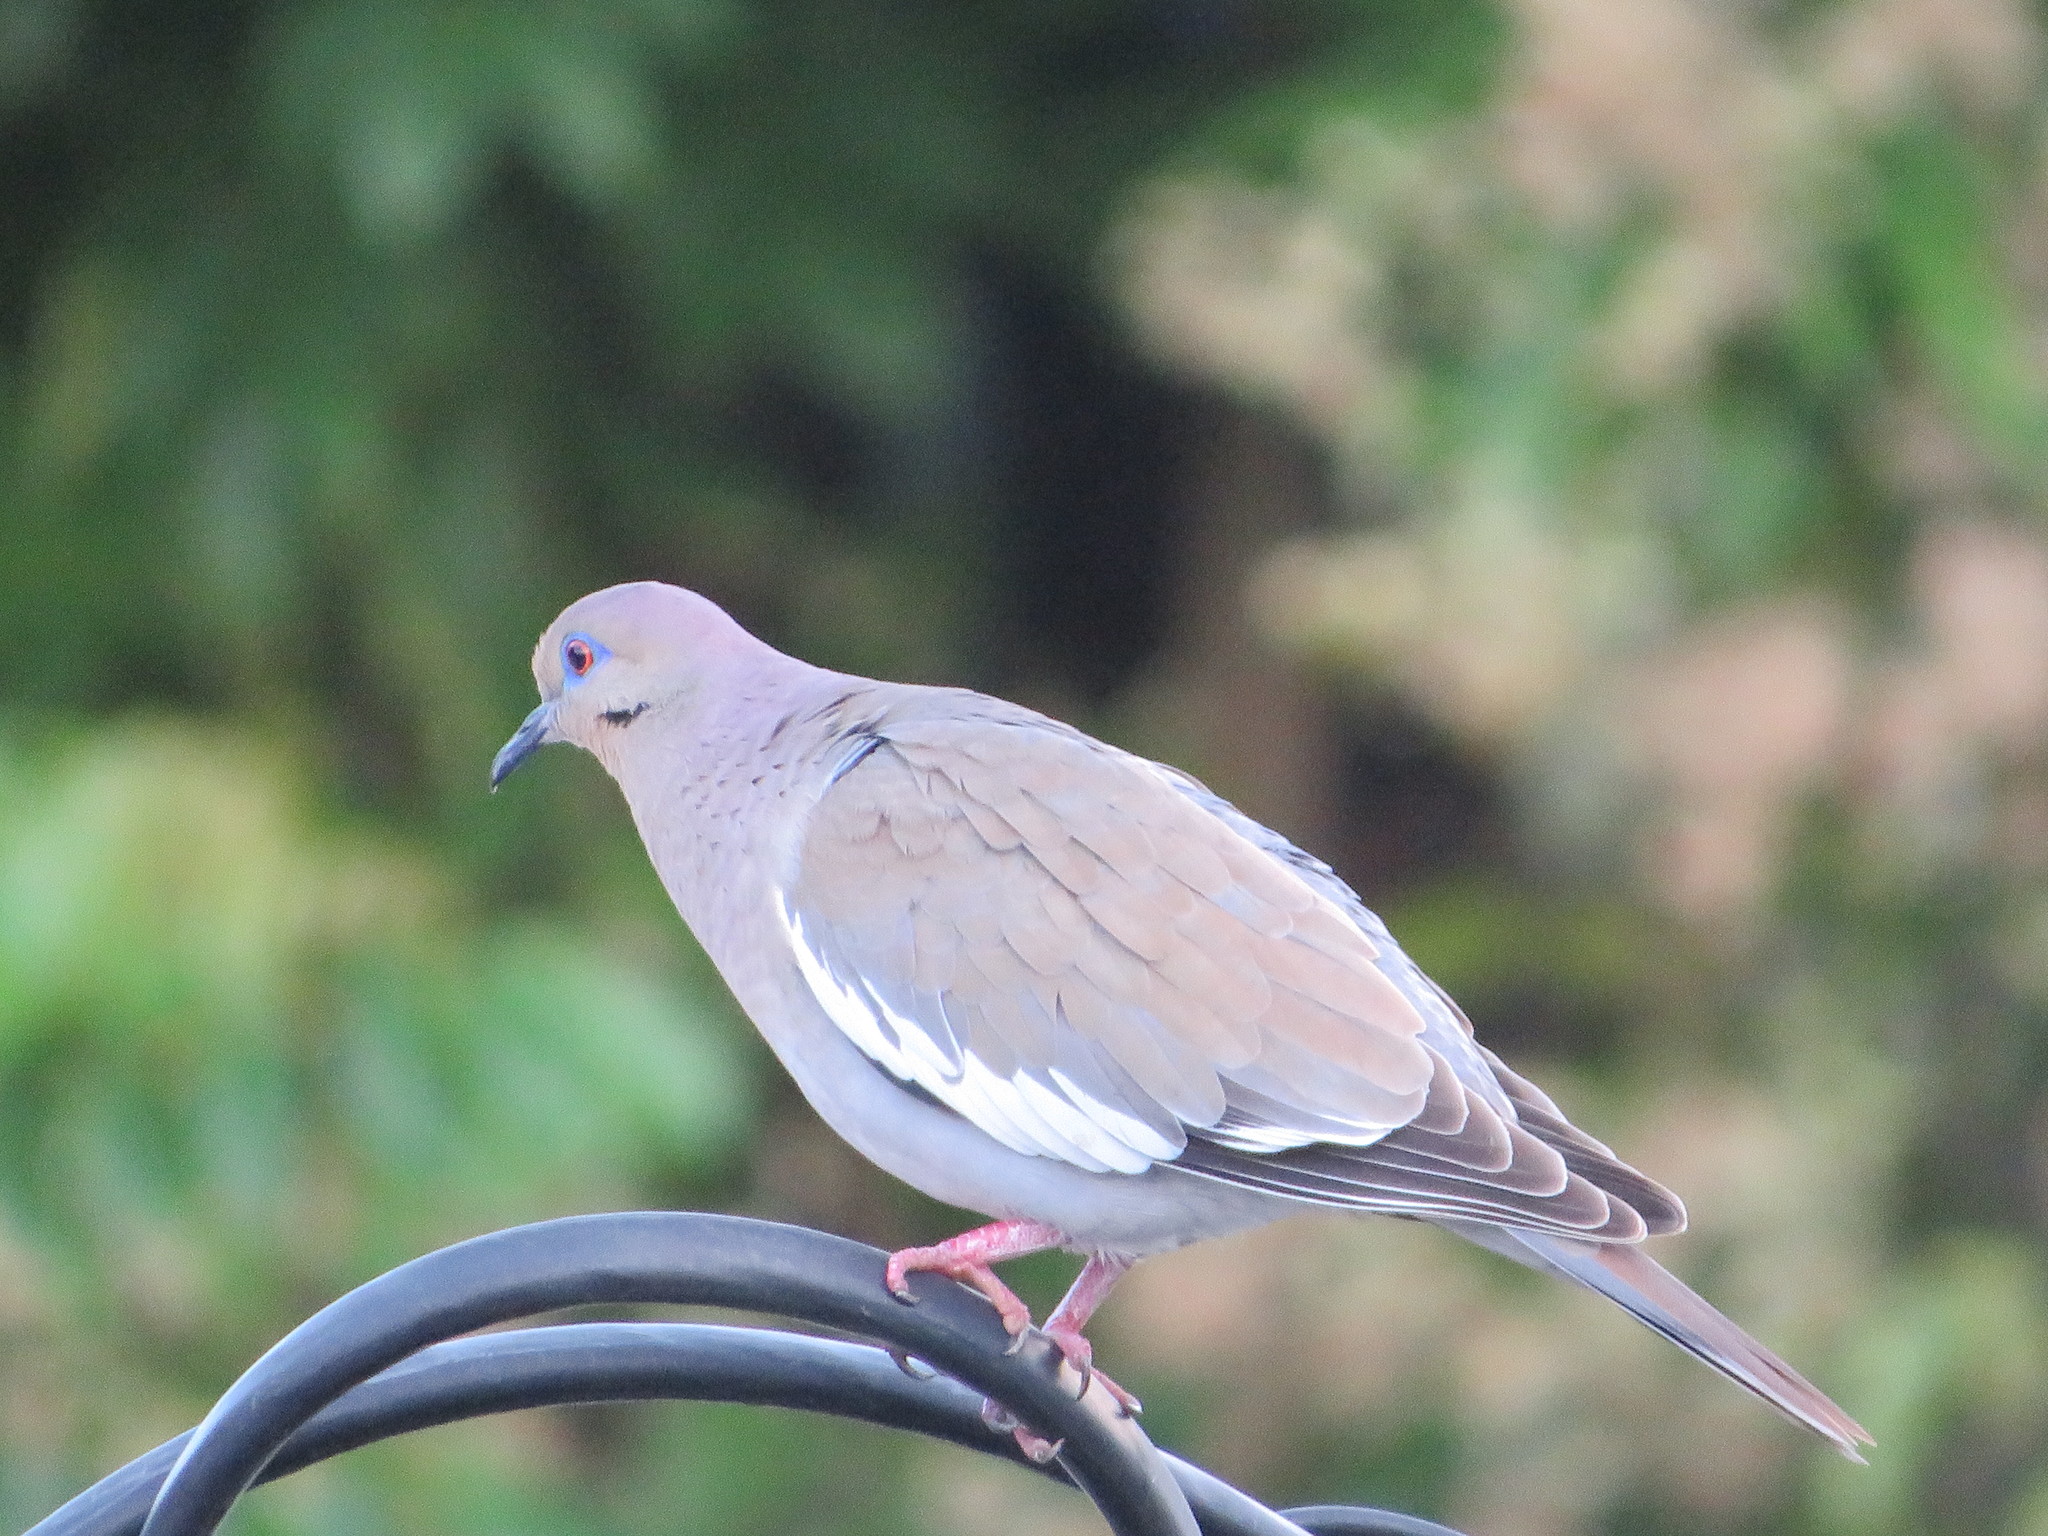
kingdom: Animalia
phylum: Chordata
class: Aves
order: Columbiformes
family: Columbidae
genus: Zenaida
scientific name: Zenaida asiatica
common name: White-winged dove
